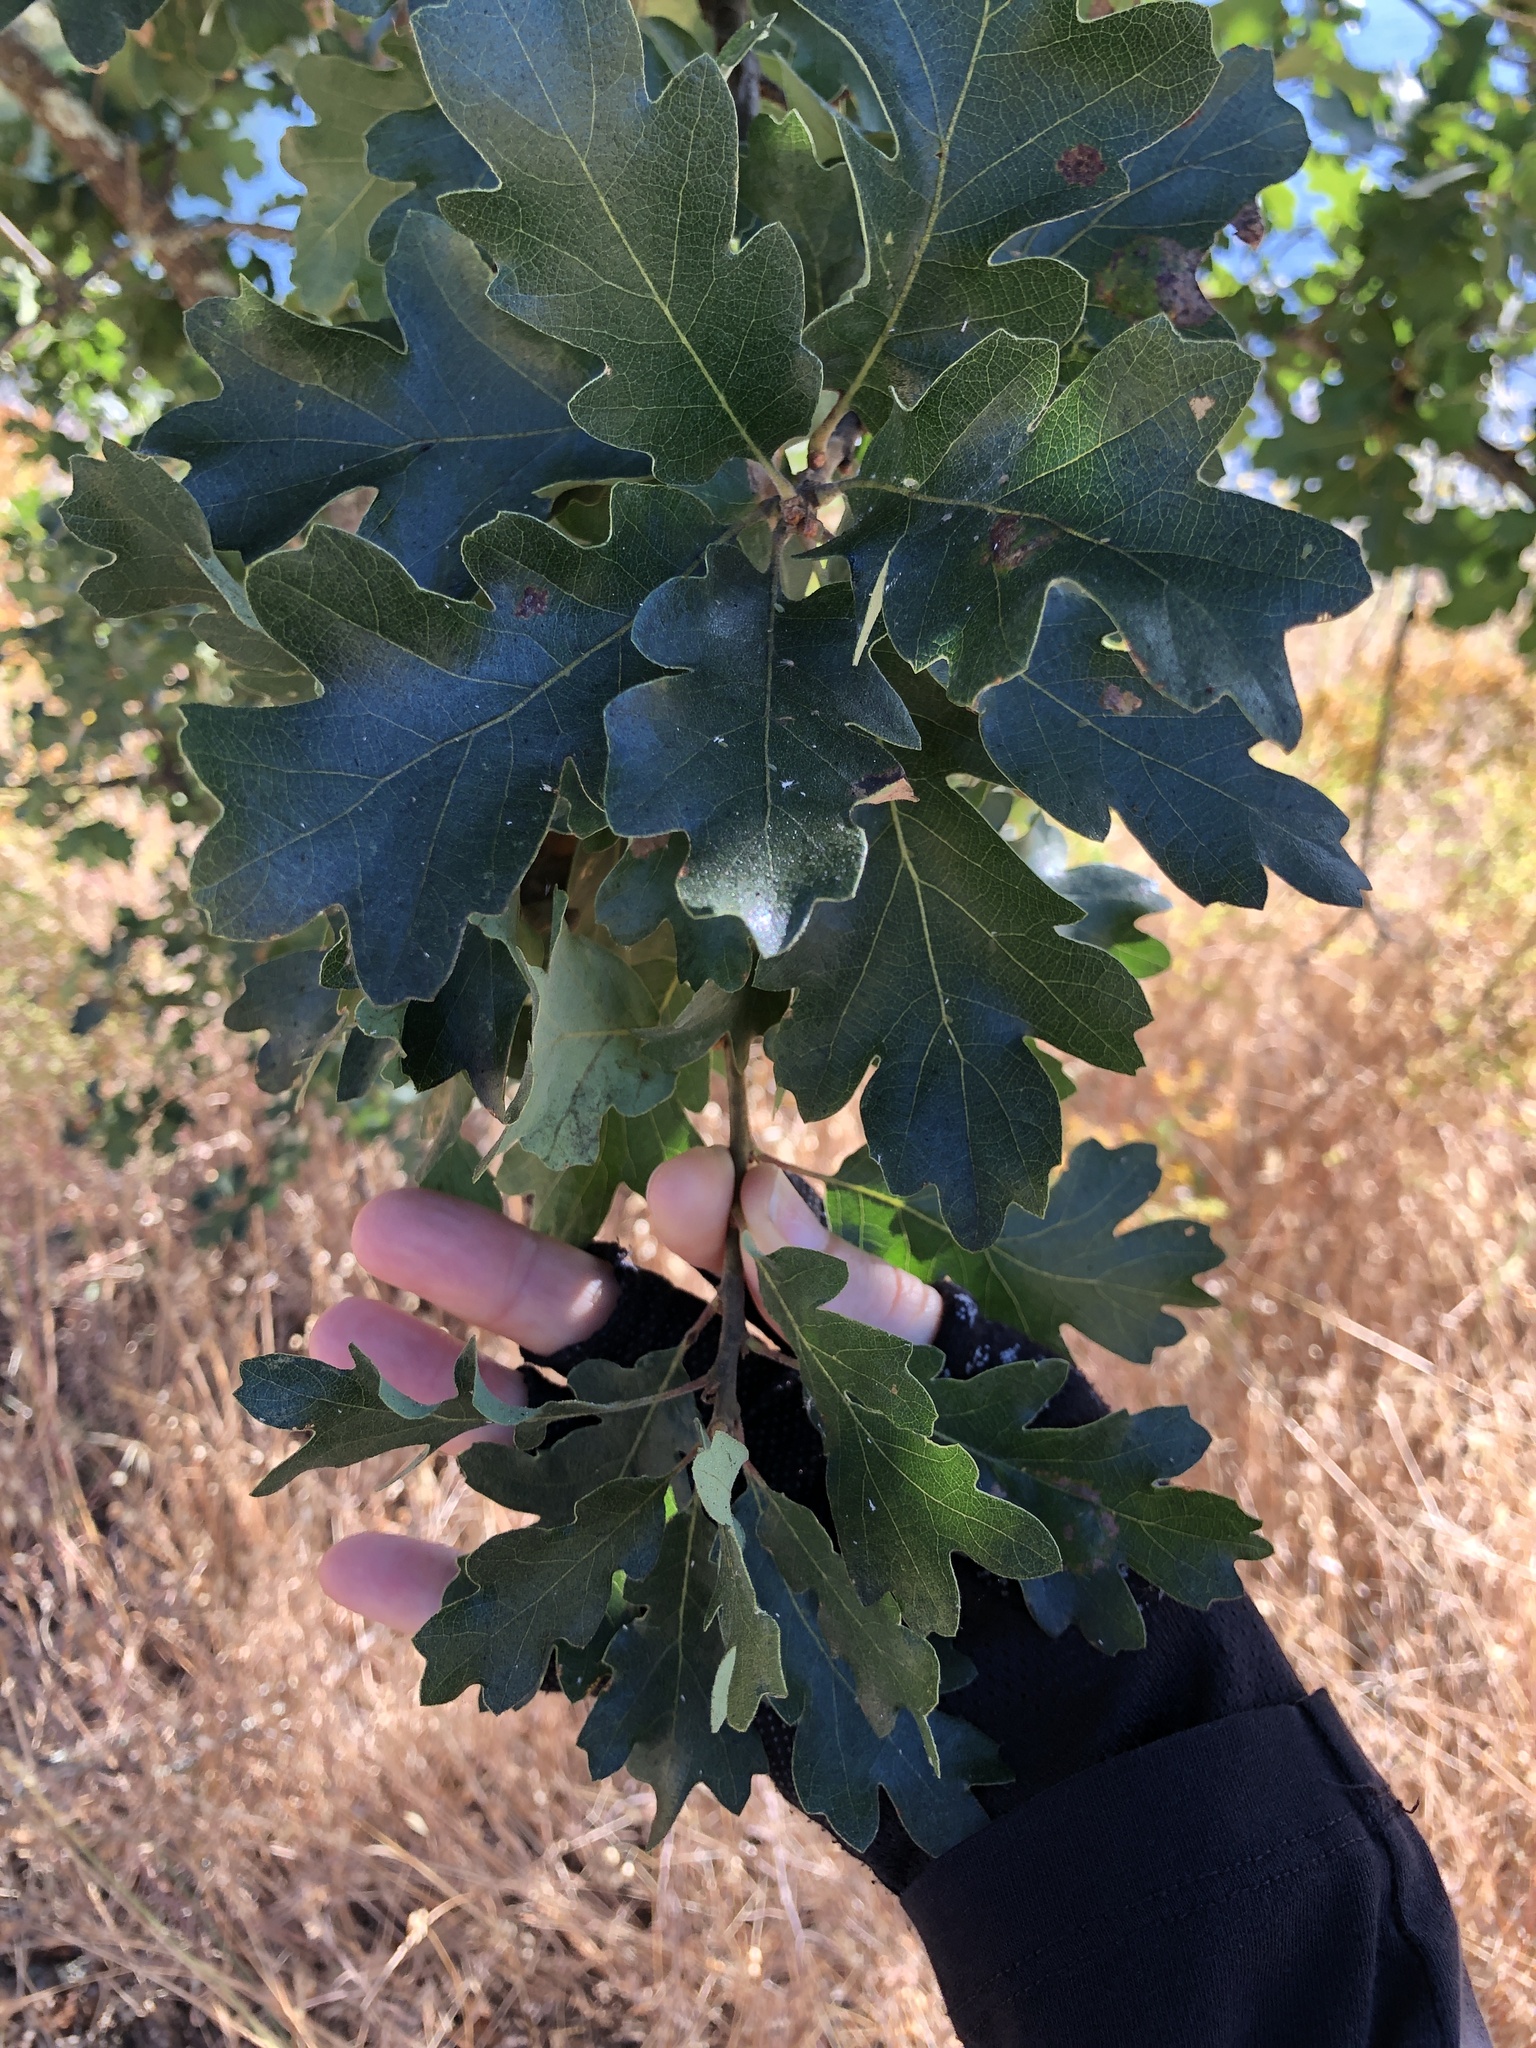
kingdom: Plantae
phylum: Tracheophyta
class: Magnoliopsida
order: Fagales
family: Fagaceae
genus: Quercus
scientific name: Quercus eplingii
